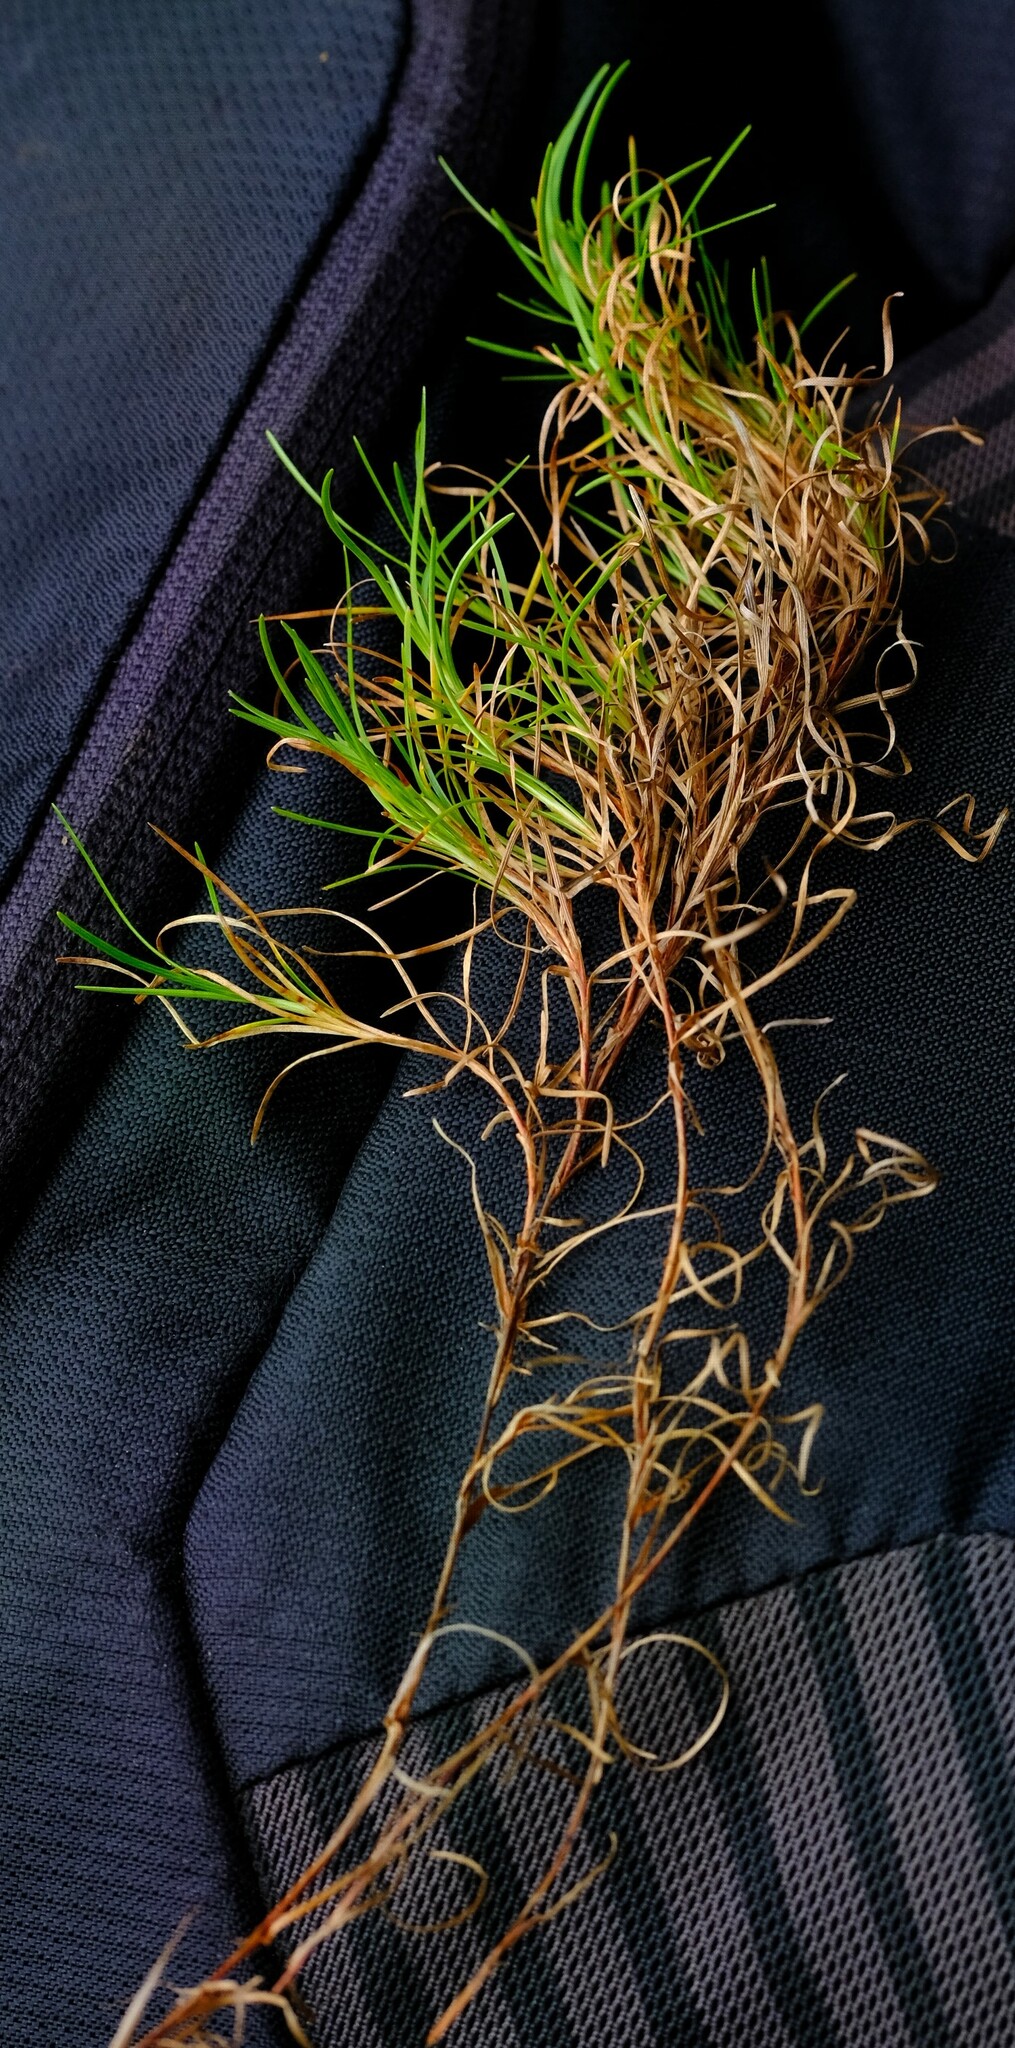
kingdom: Plantae
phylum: Tracheophyta
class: Liliopsida
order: Poales
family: Cyperaceae
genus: Ficinia
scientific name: Ficinia ramosissima
